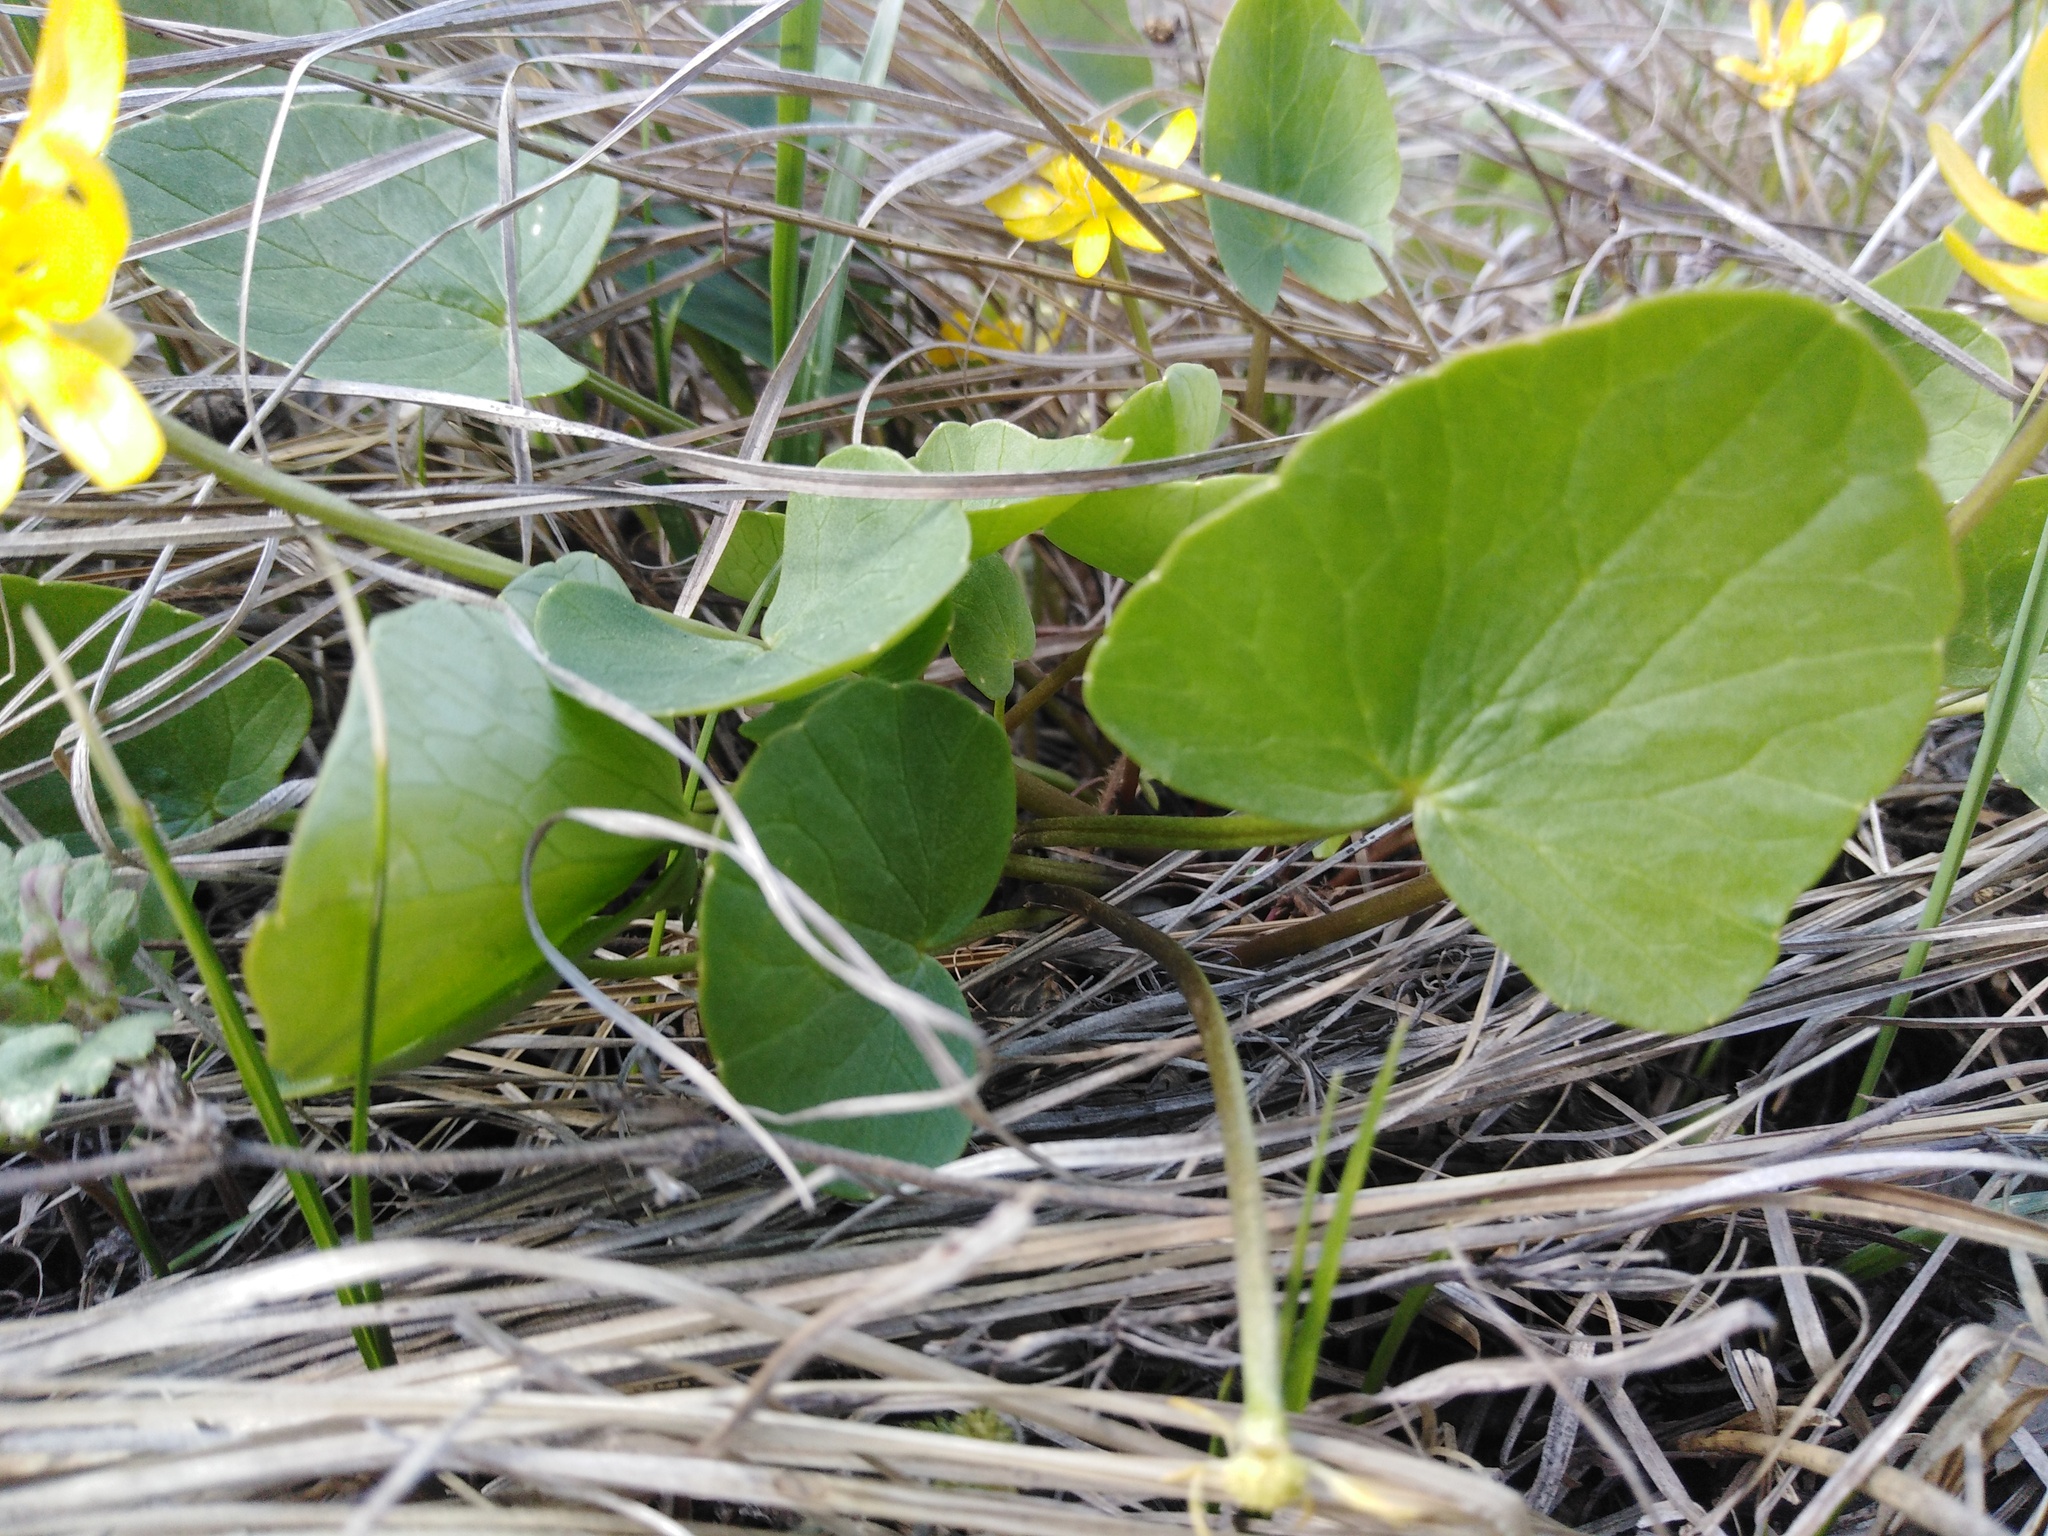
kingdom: Plantae
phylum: Tracheophyta
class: Magnoliopsida
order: Ranunculales
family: Ranunculaceae
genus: Ficaria
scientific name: Ficaria
